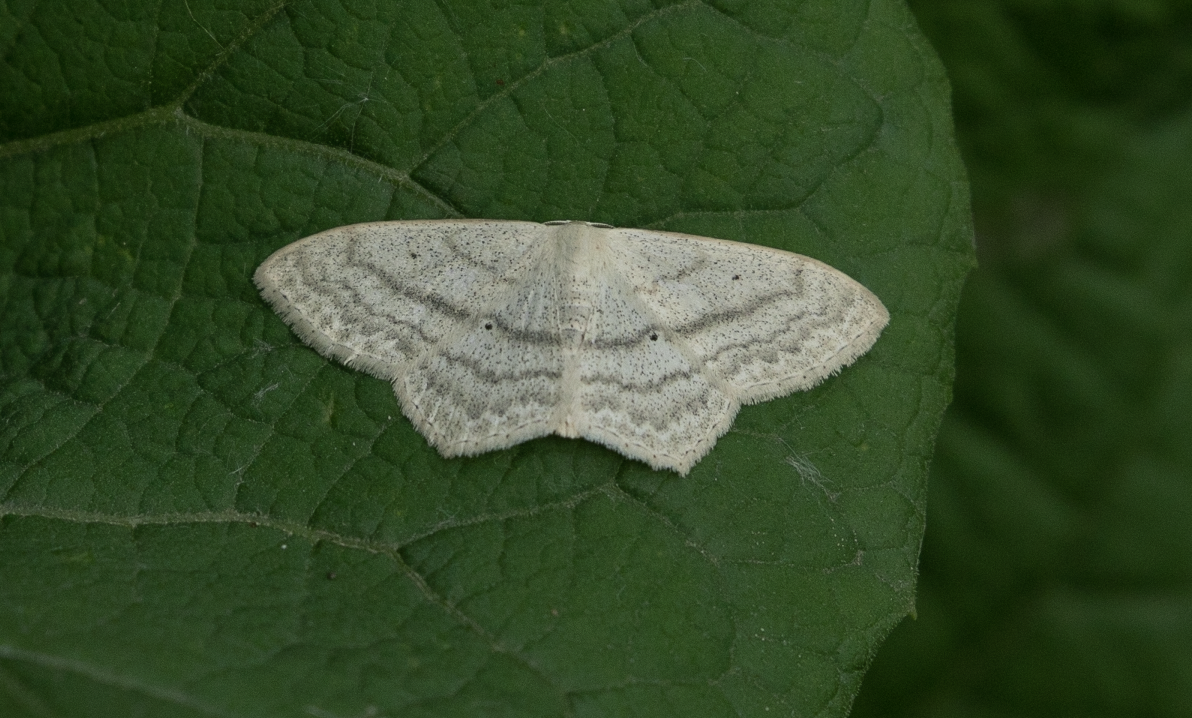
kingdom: Animalia
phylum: Arthropoda
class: Insecta
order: Lepidoptera
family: Geometridae
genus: Scopula
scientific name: Scopula nigropunctata
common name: Sub-angled wave
